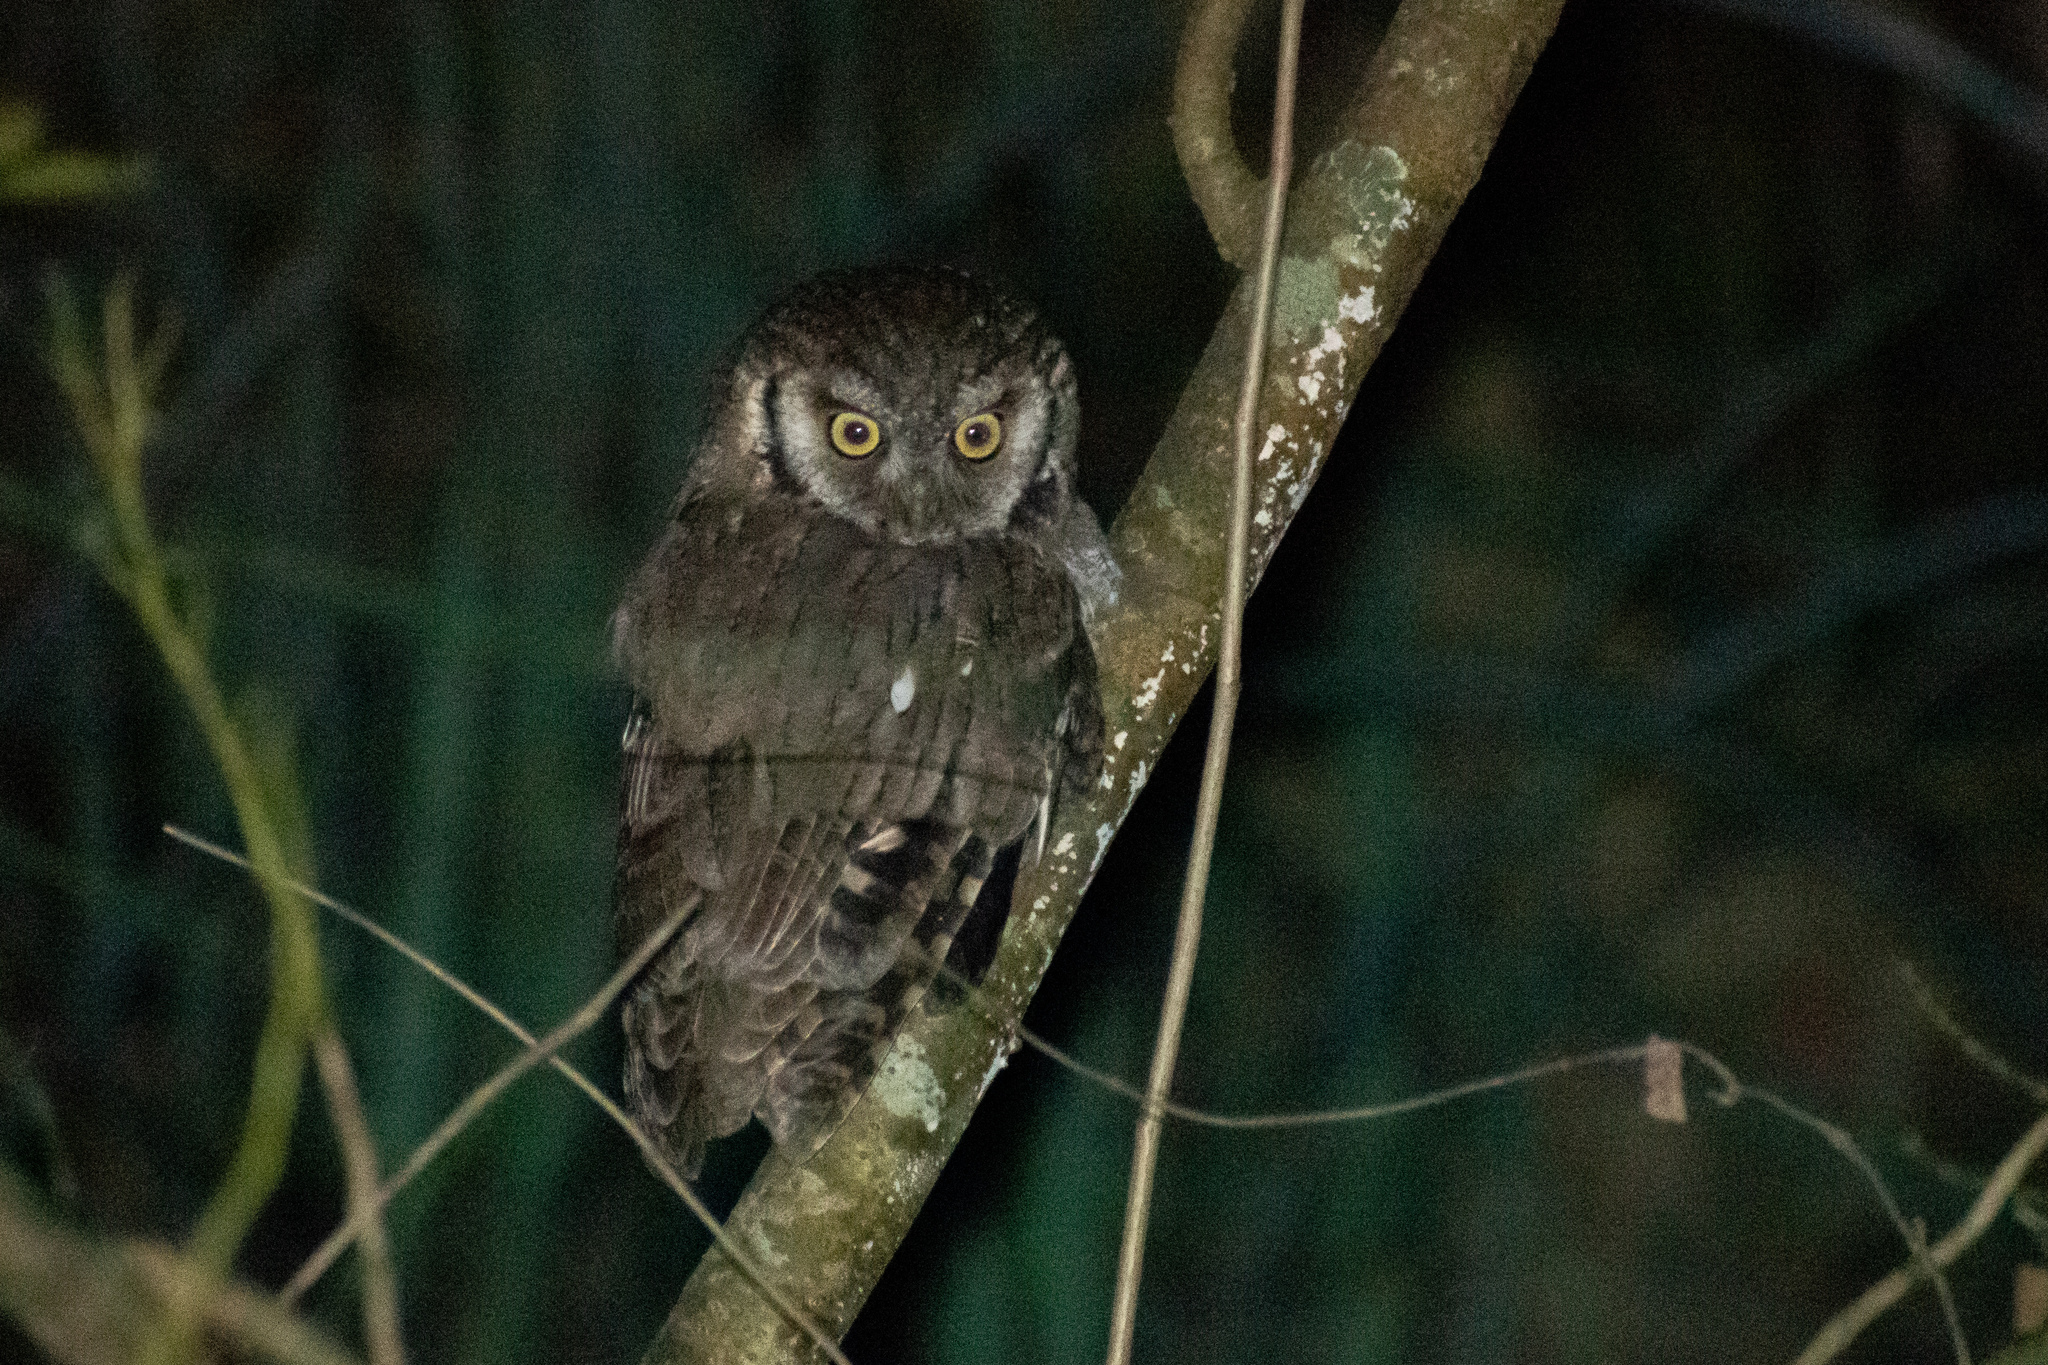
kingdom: Animalia
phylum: Chordata
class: Aves
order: Strigiformes
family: Strigidae
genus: Megascops
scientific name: Megascops choliba
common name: Tropical screech-owl
